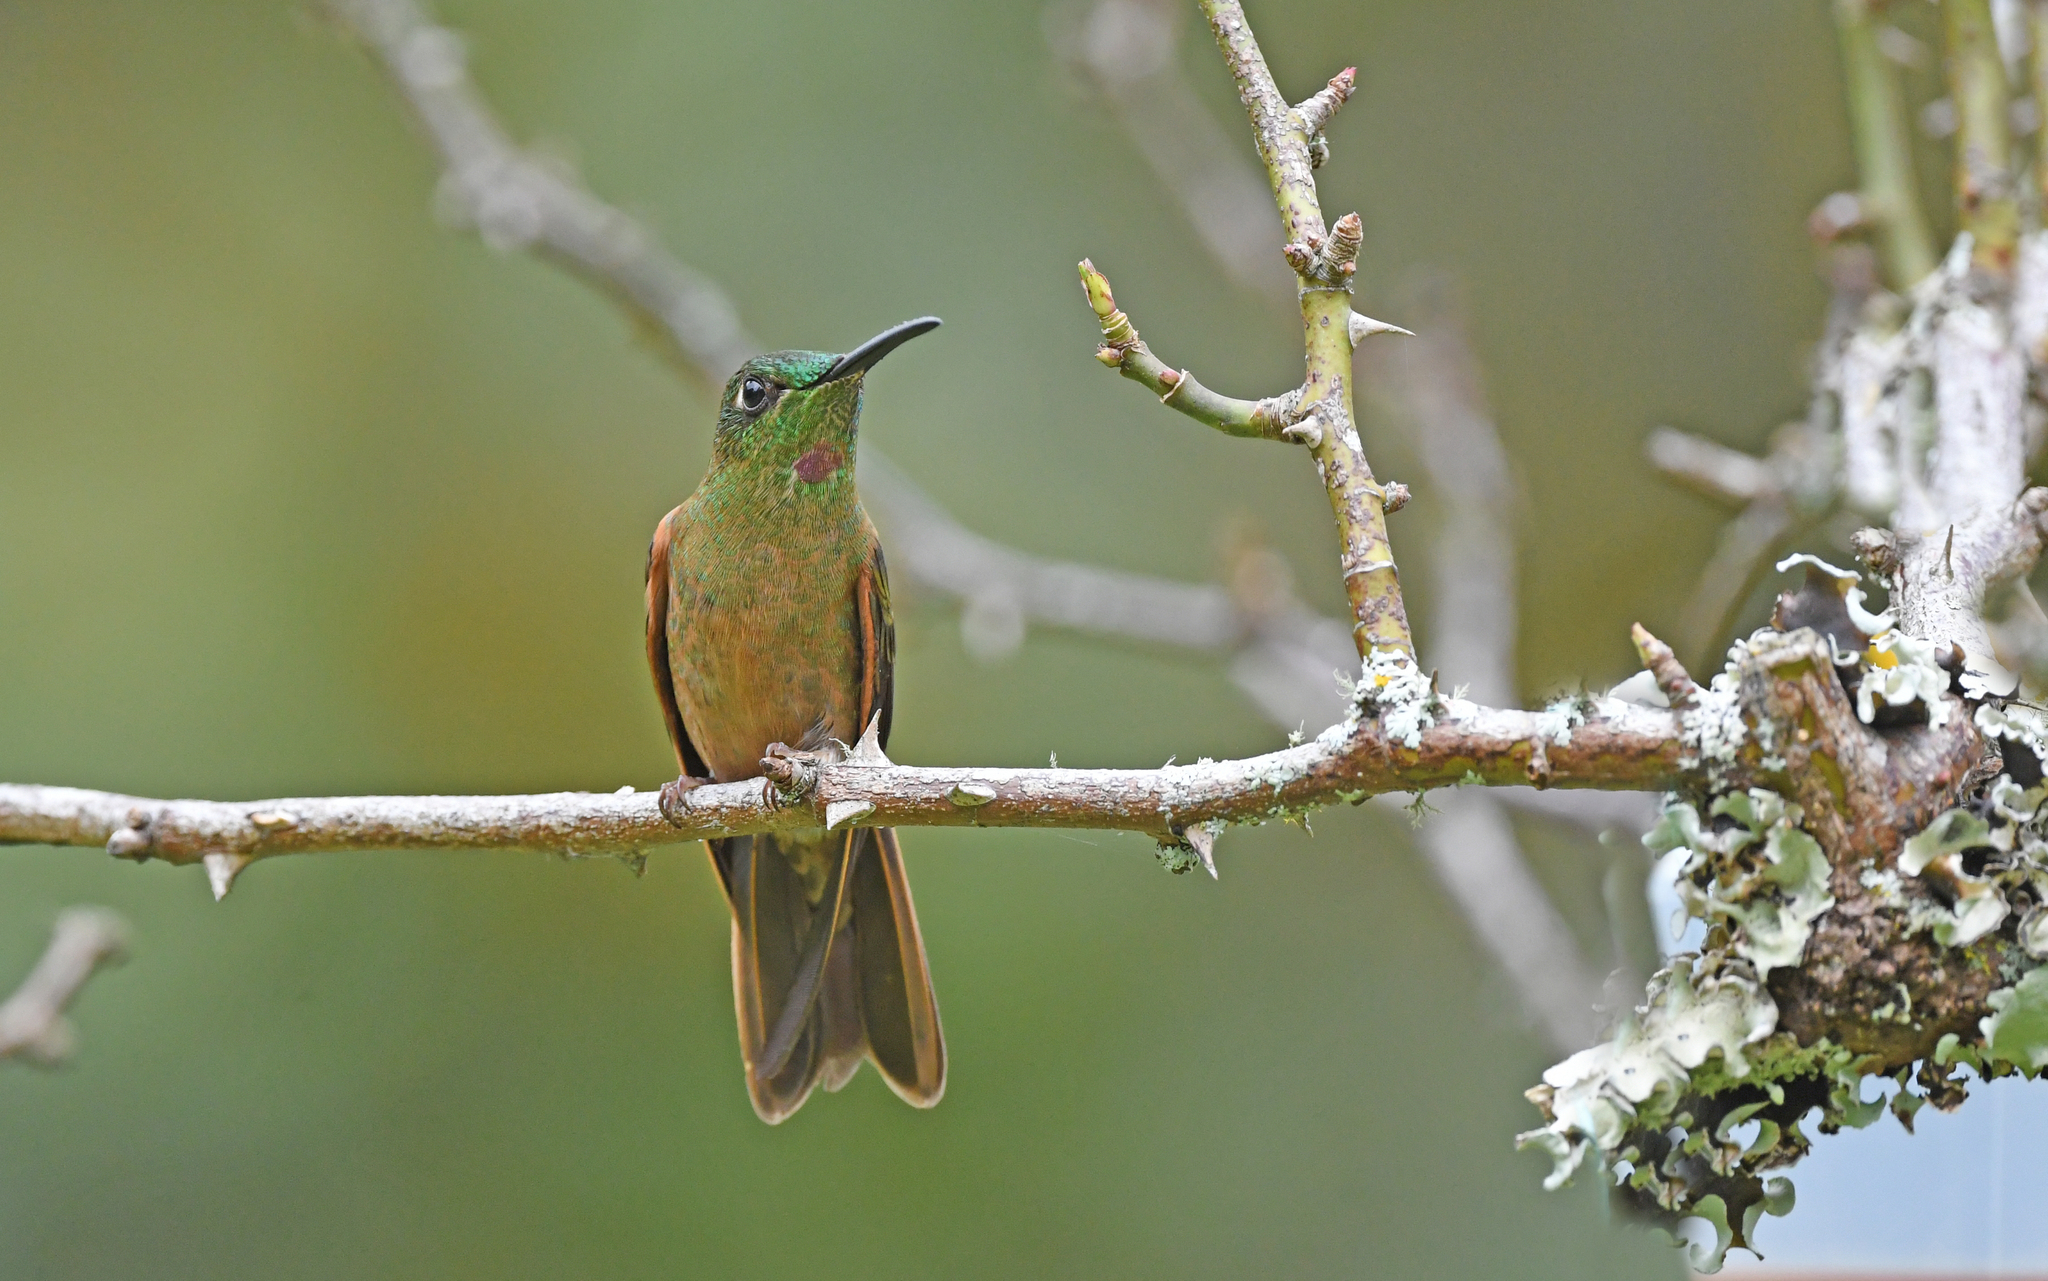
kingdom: Animalia
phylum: Chordata
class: Aves
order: Apodiformes
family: Trochilidae
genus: Heliodoxa
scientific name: Heliodoxa rubinoides
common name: Fawn-breasted brilliant
